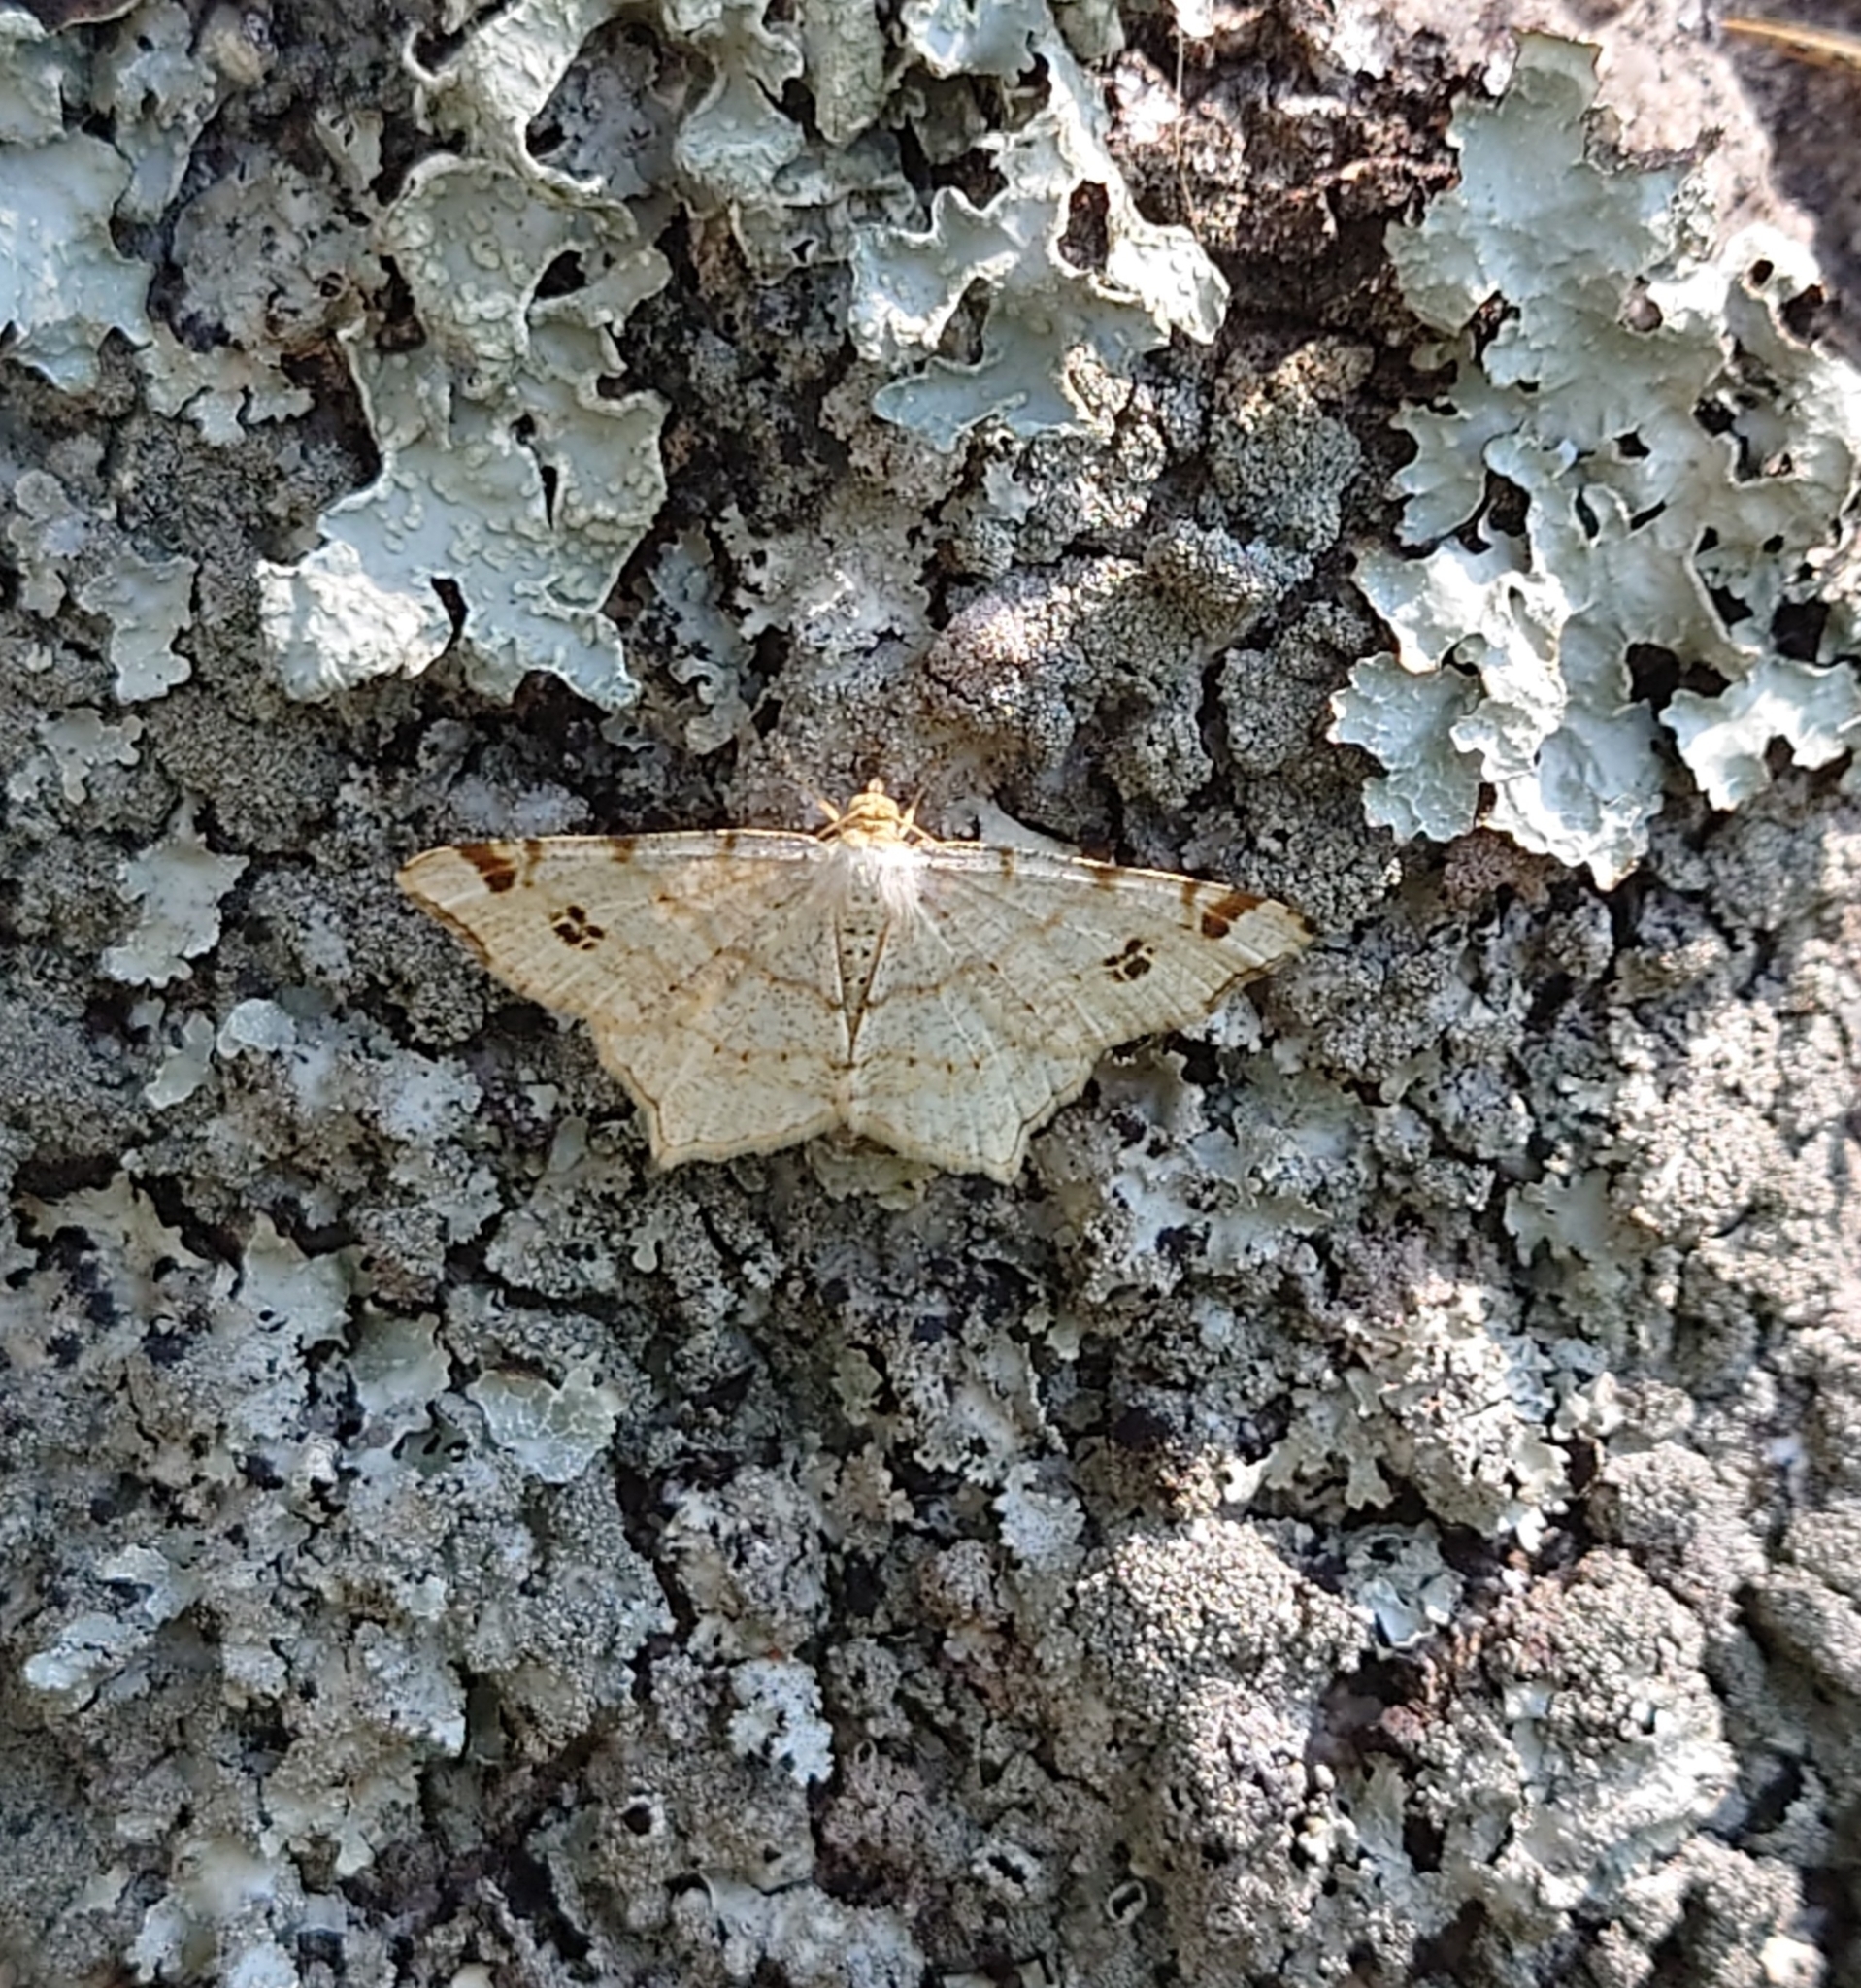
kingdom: Animalia
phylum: Arthropoda
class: Insecta
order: Lepidoptera
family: Geometridae
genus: Macaria
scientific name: Macaria notata
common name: Peacock moth
